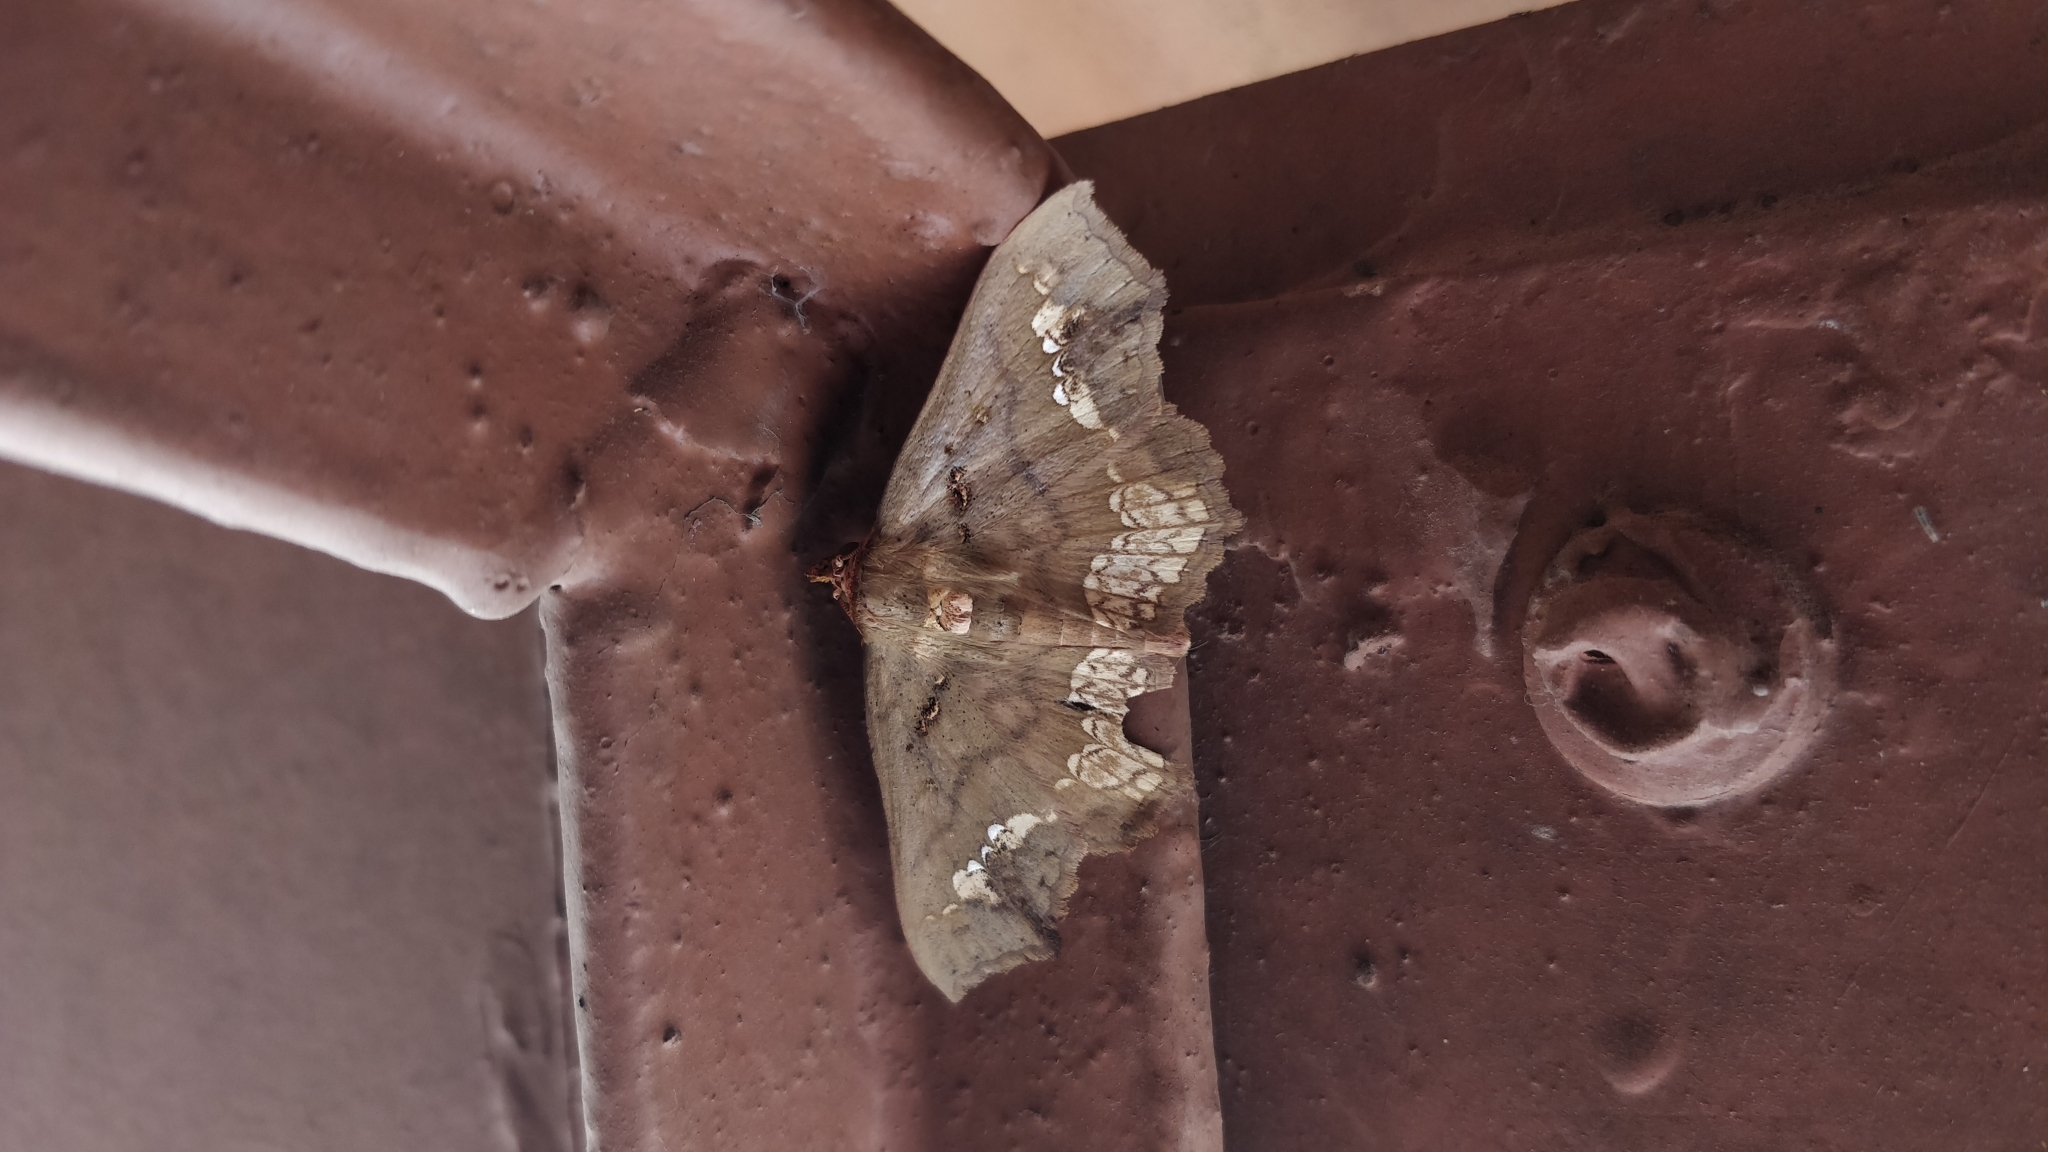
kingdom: Animalia
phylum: Arthropoda
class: Insecta
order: Lepidoptera
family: Erebidae
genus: Lopharthrum
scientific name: Lopharthrum comprimens
